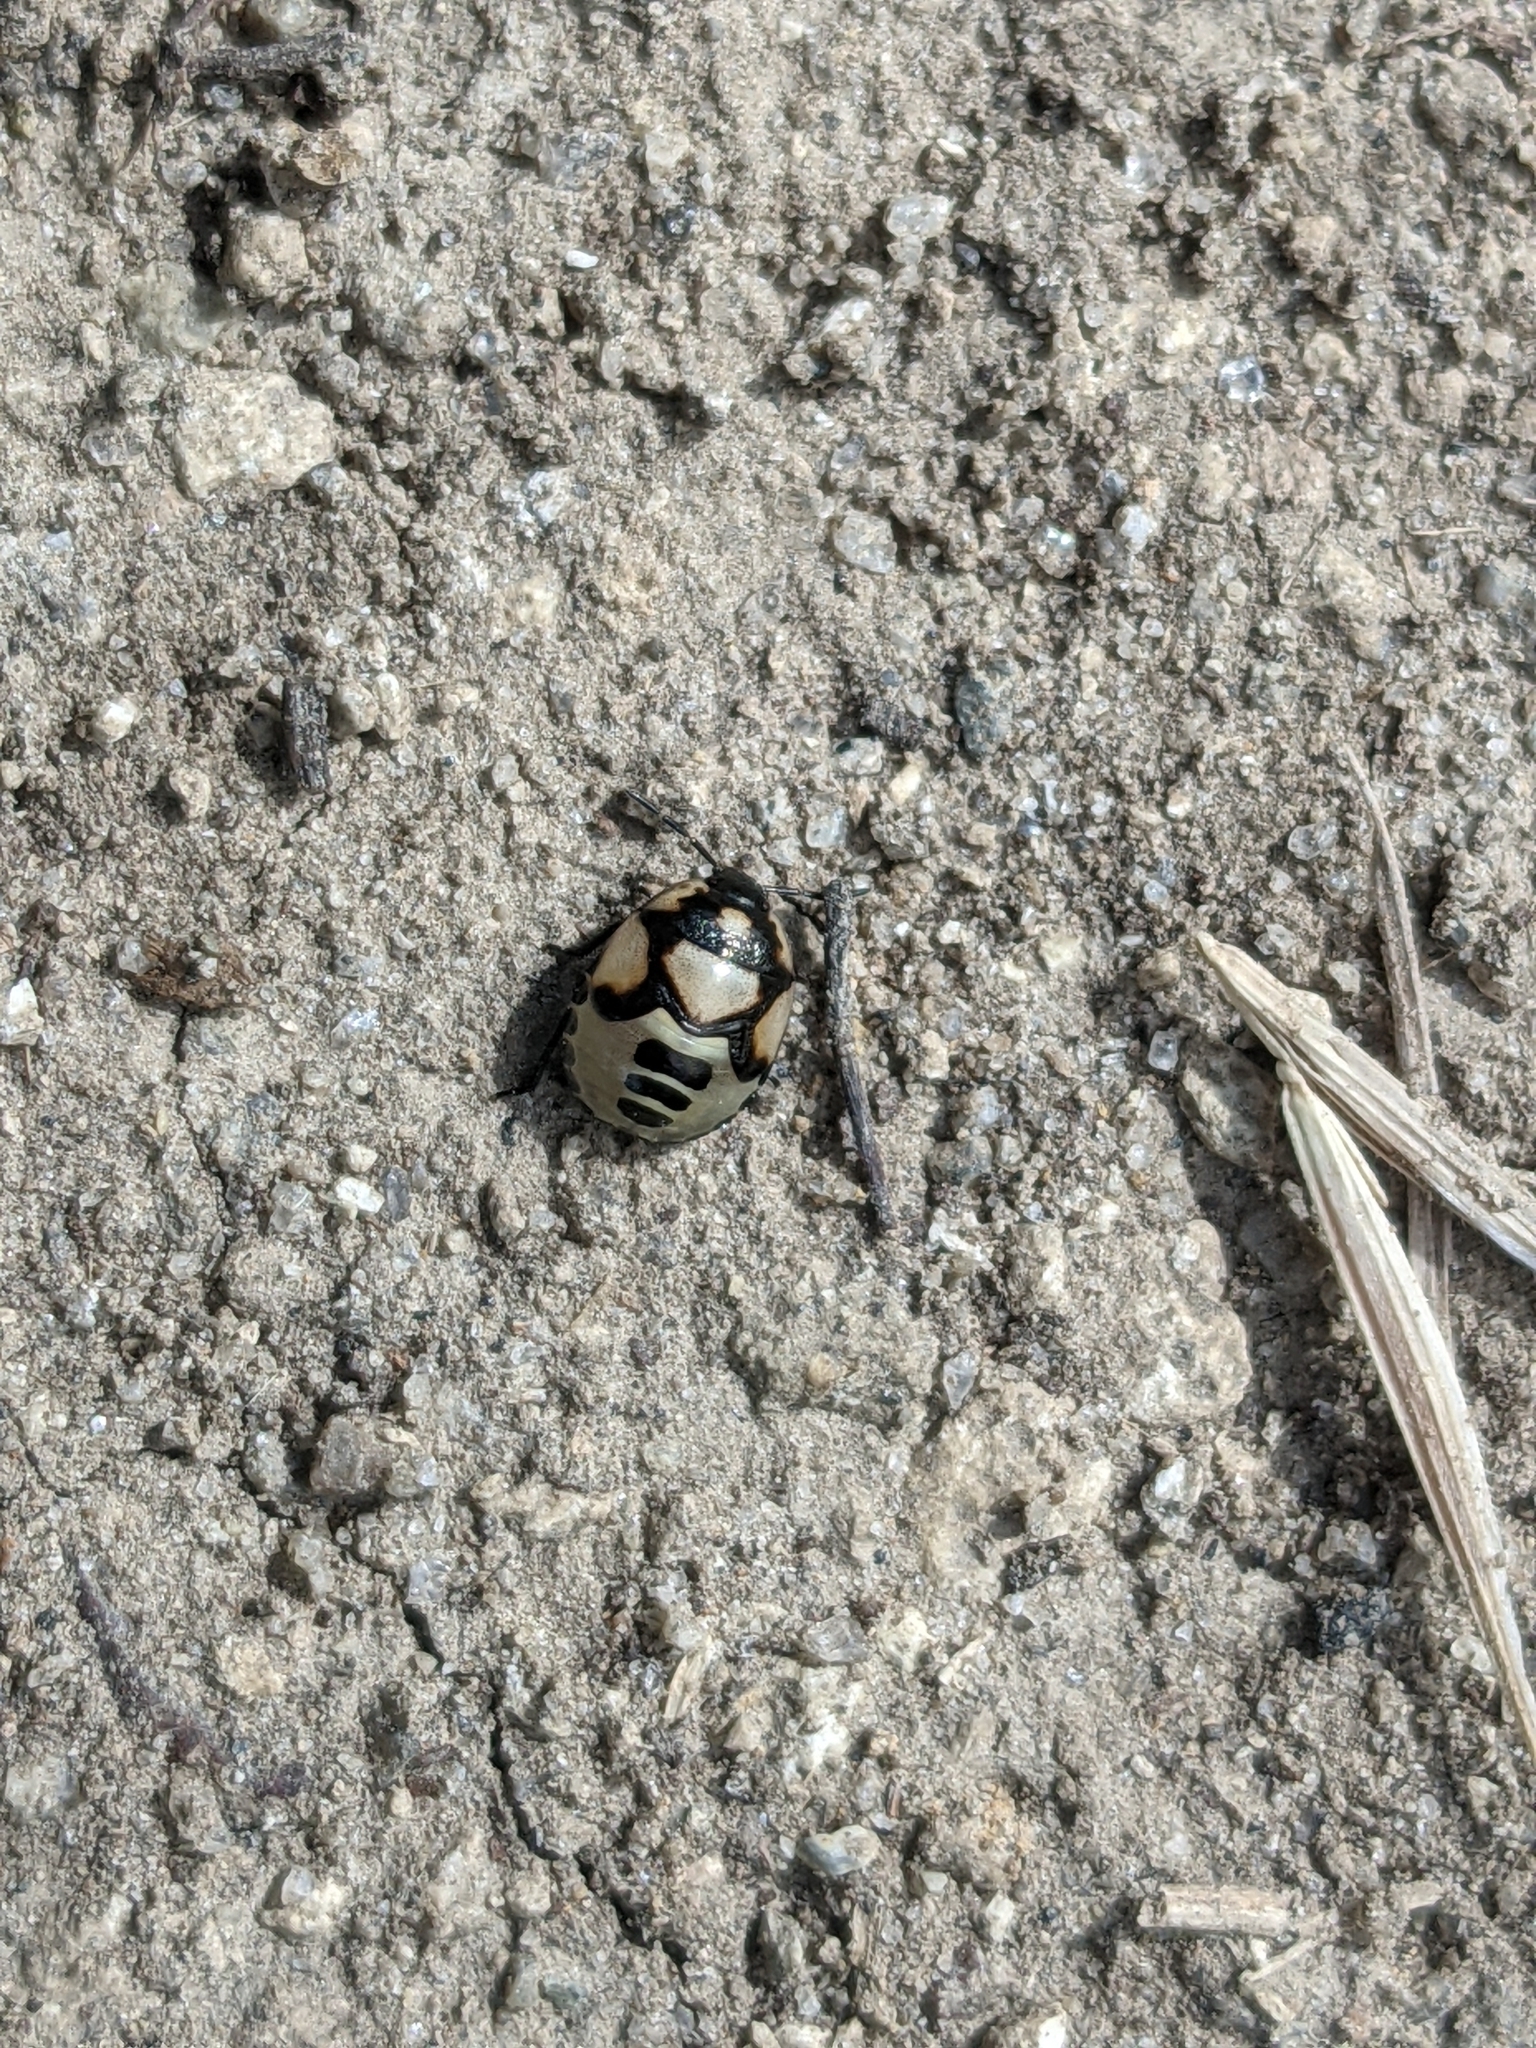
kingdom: Animalia
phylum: Arthropoda
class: Insecta
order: Hemiptera
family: Cydnidae
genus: Tritomegas
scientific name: Tritomegas bicolor
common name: Pied shieldbug
